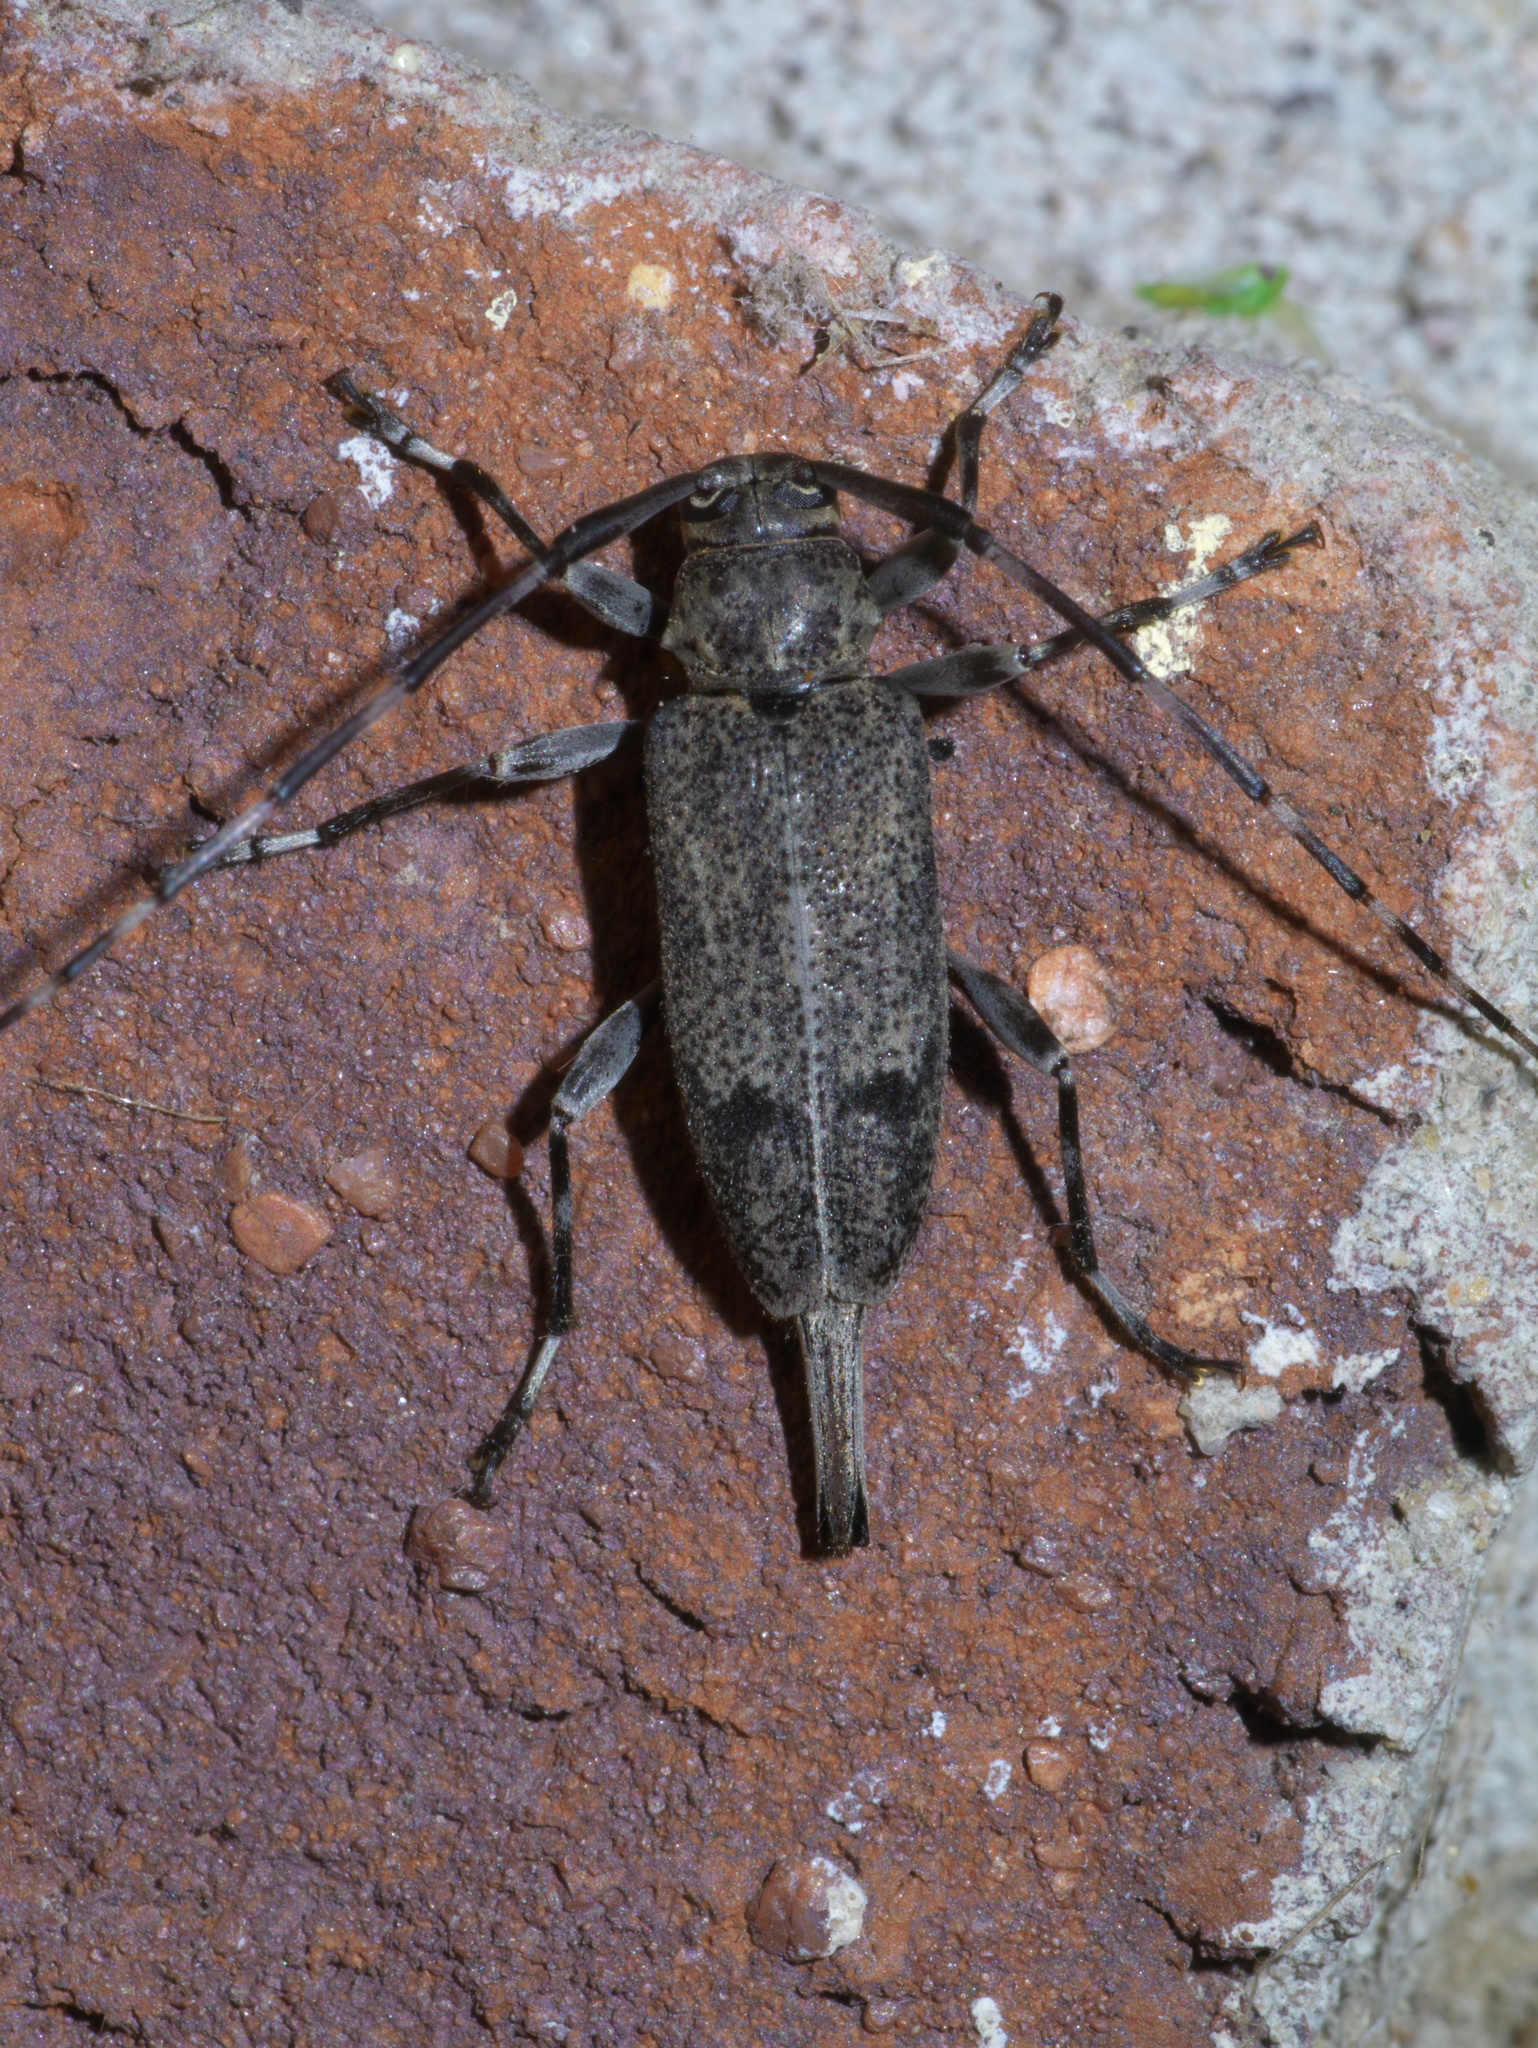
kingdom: Animalia
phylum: Arthropoda
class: Insecta
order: Coleoptera
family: Cerambycidae
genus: Graphisurus
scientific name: Graphisurus despectus
